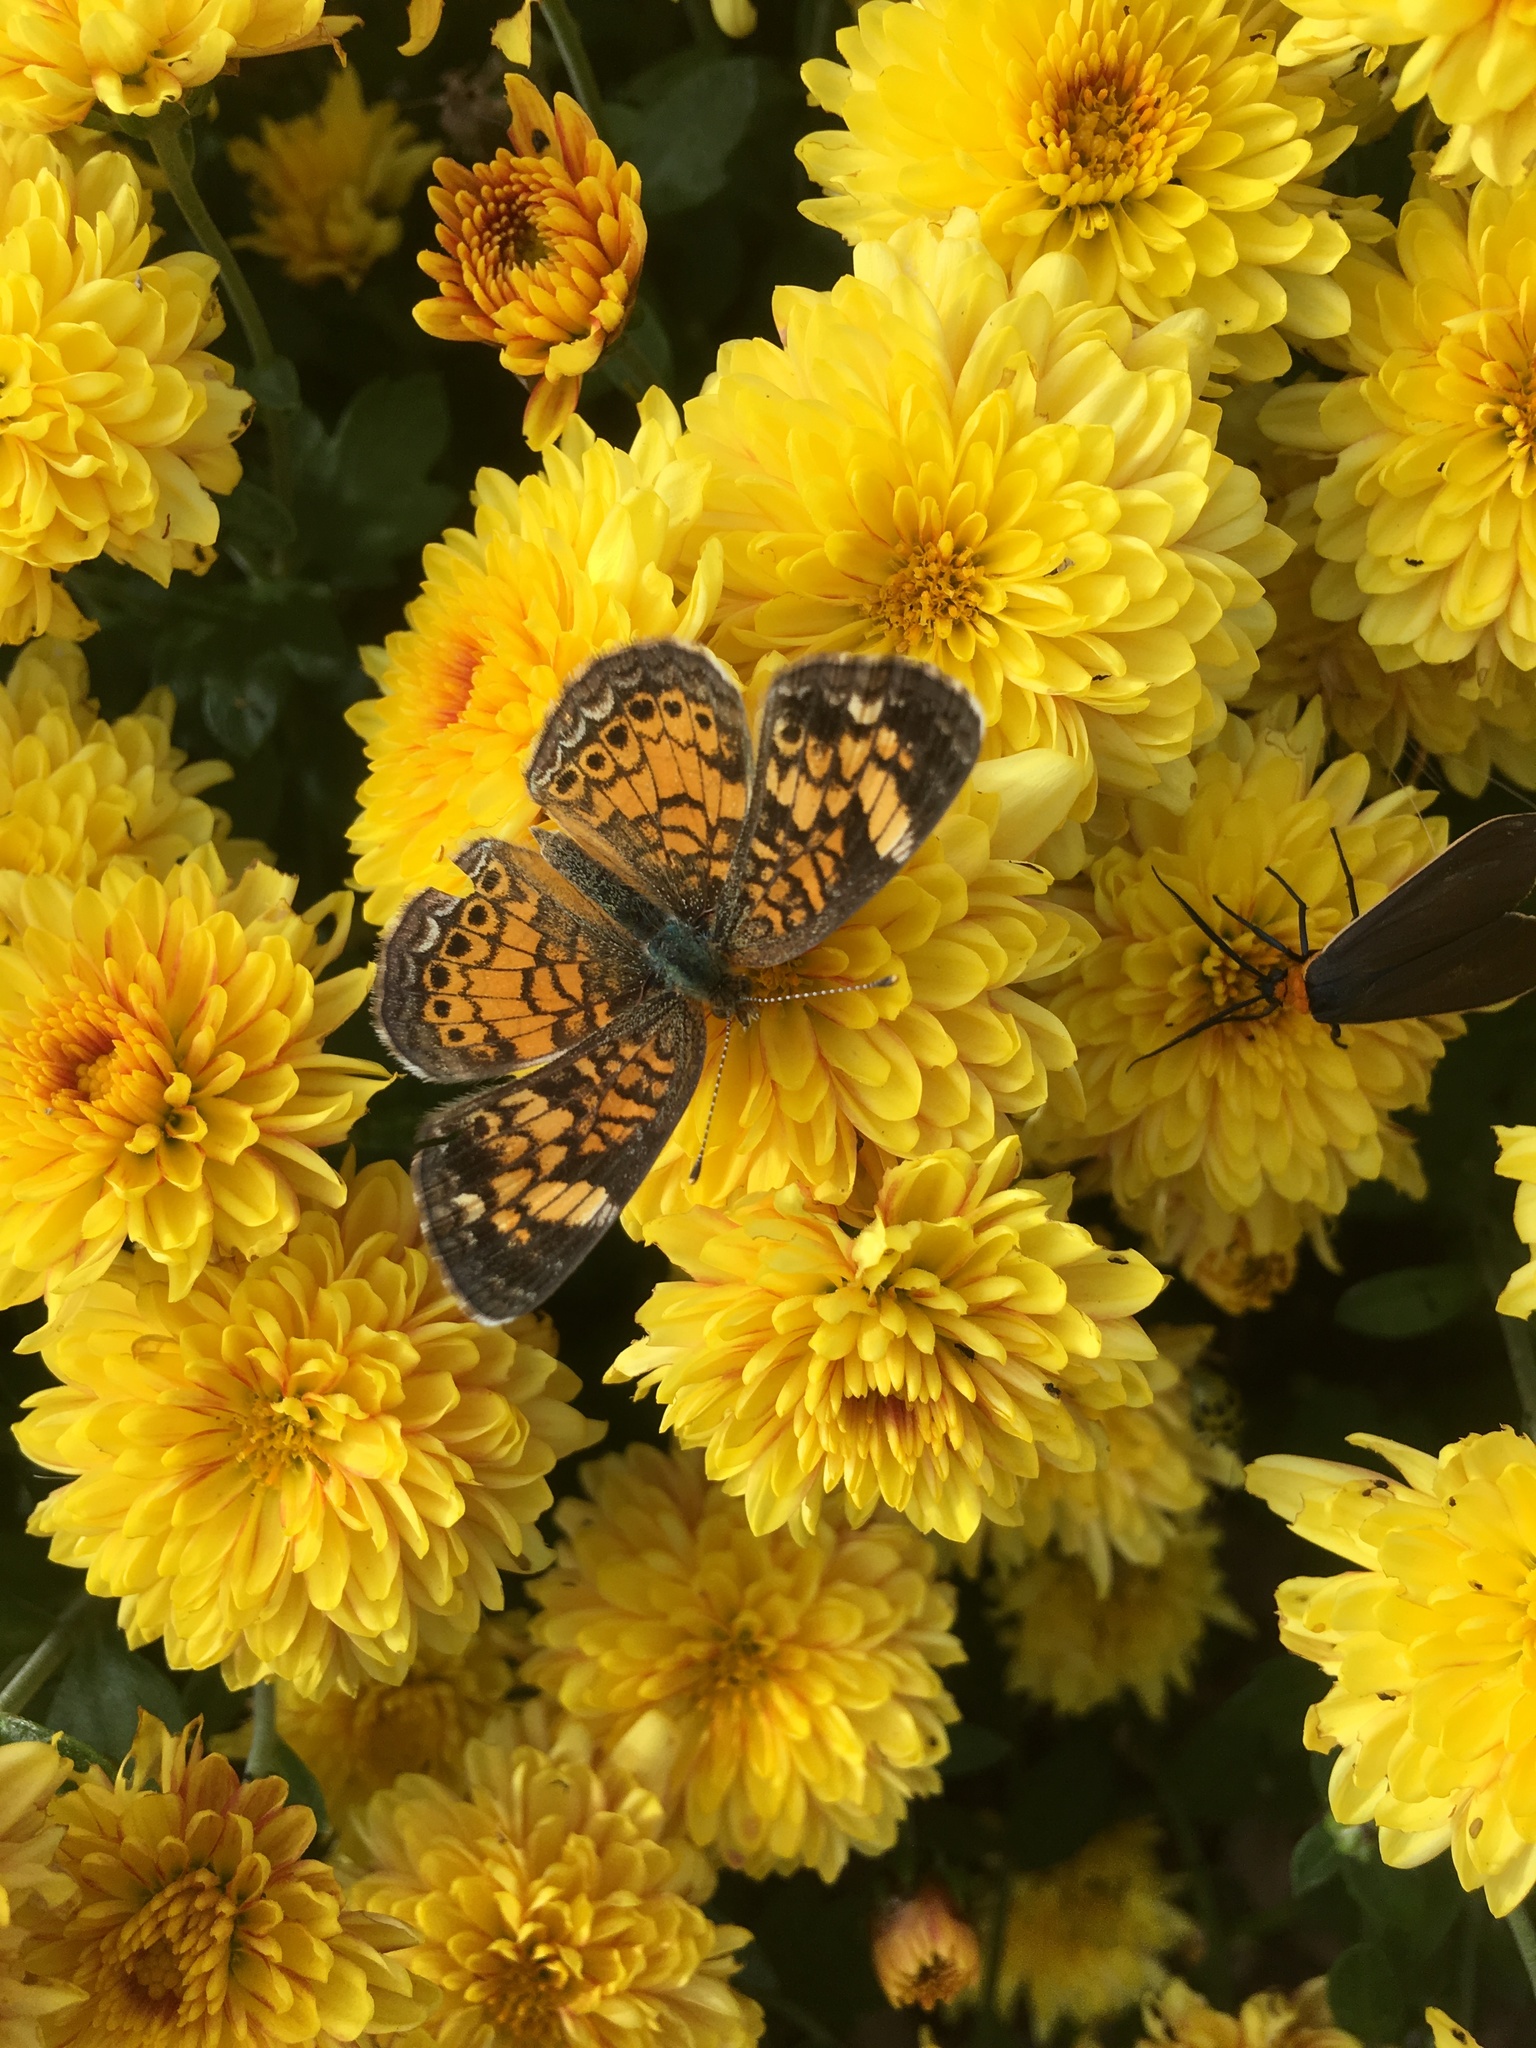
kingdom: Animalia
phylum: Arthropoda
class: Insecta
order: Lepidoptera
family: Nymphalidae
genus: Phyciodes
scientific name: Phyciodes tharos
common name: Pearl crescent
